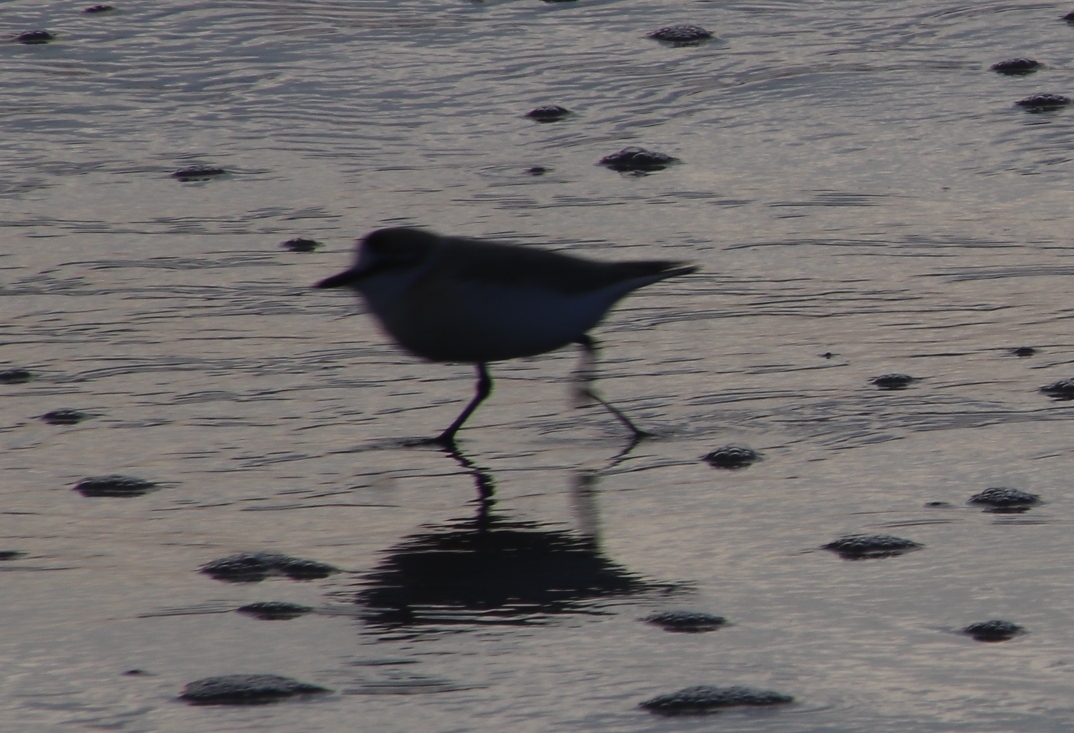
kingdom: Animalia
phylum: Chordata
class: Aves
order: Charadriiformes
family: Charadriidae
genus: Anarhynchus
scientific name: Anarhynchus
